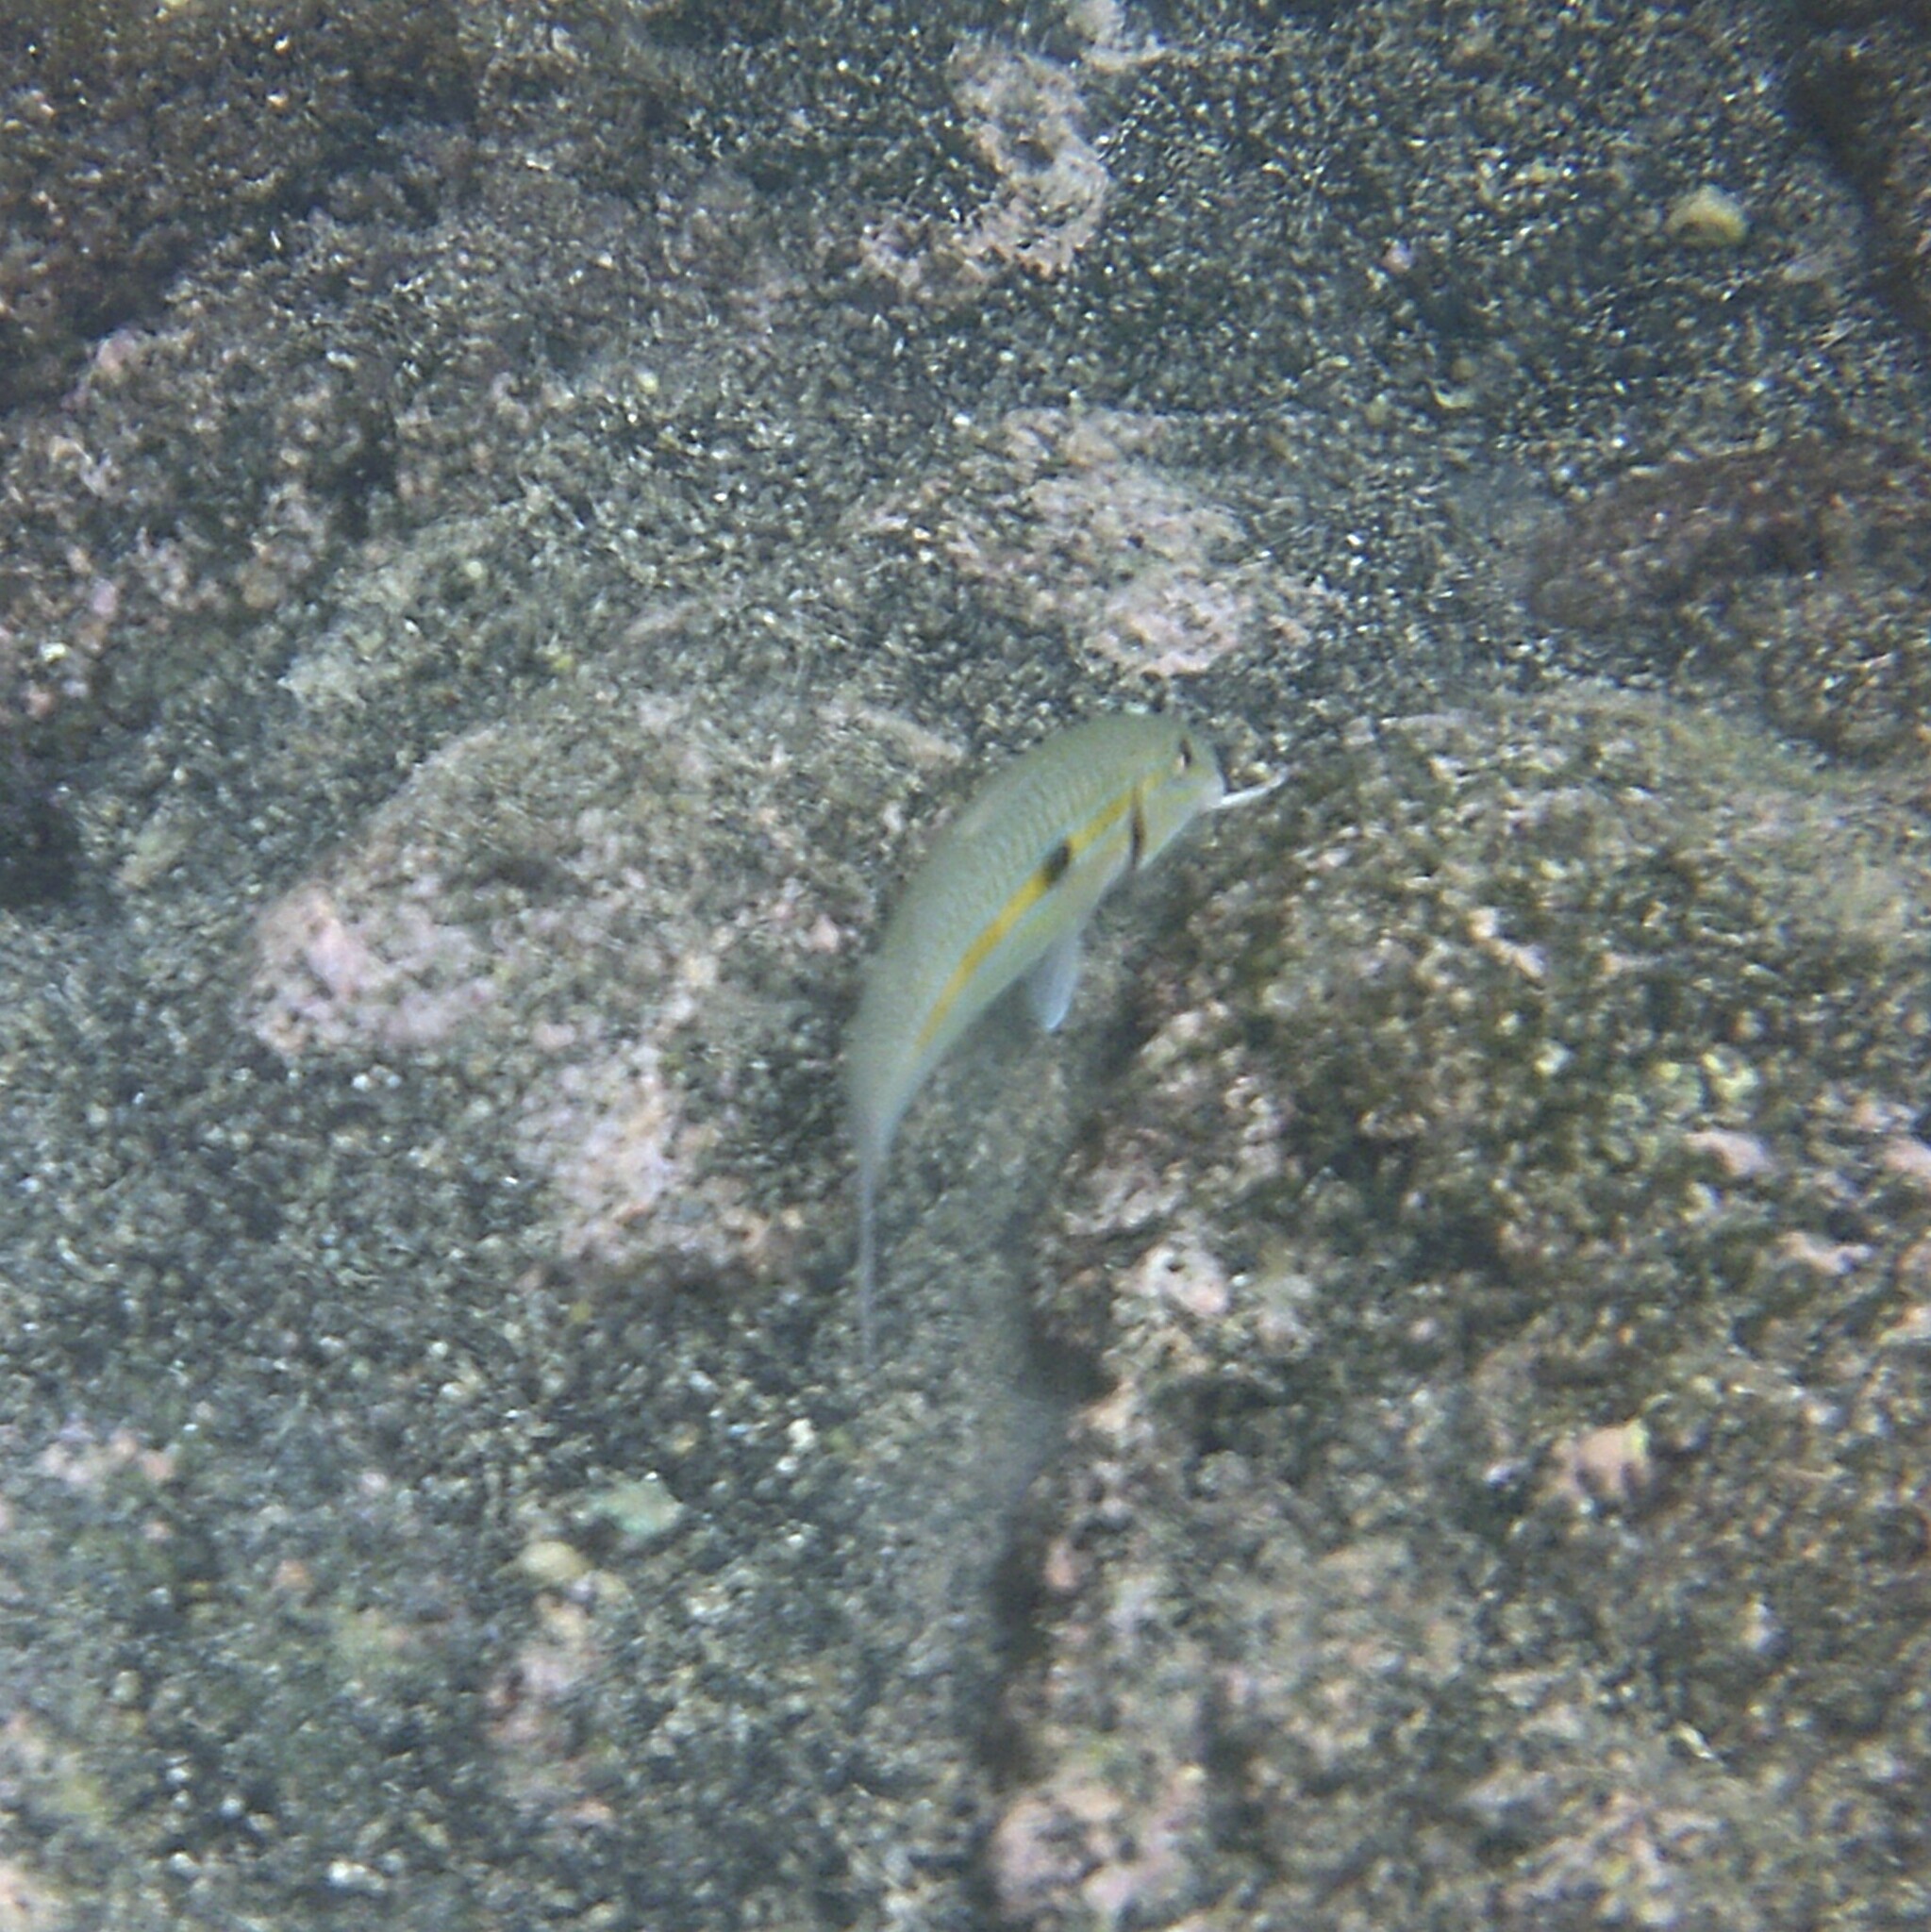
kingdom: Animalia
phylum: Chordata
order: Perciformes
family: Mullidae
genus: Mulloidichthys
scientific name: Mulloidichthys flavolineatus
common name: Yellowstripe goatfish
